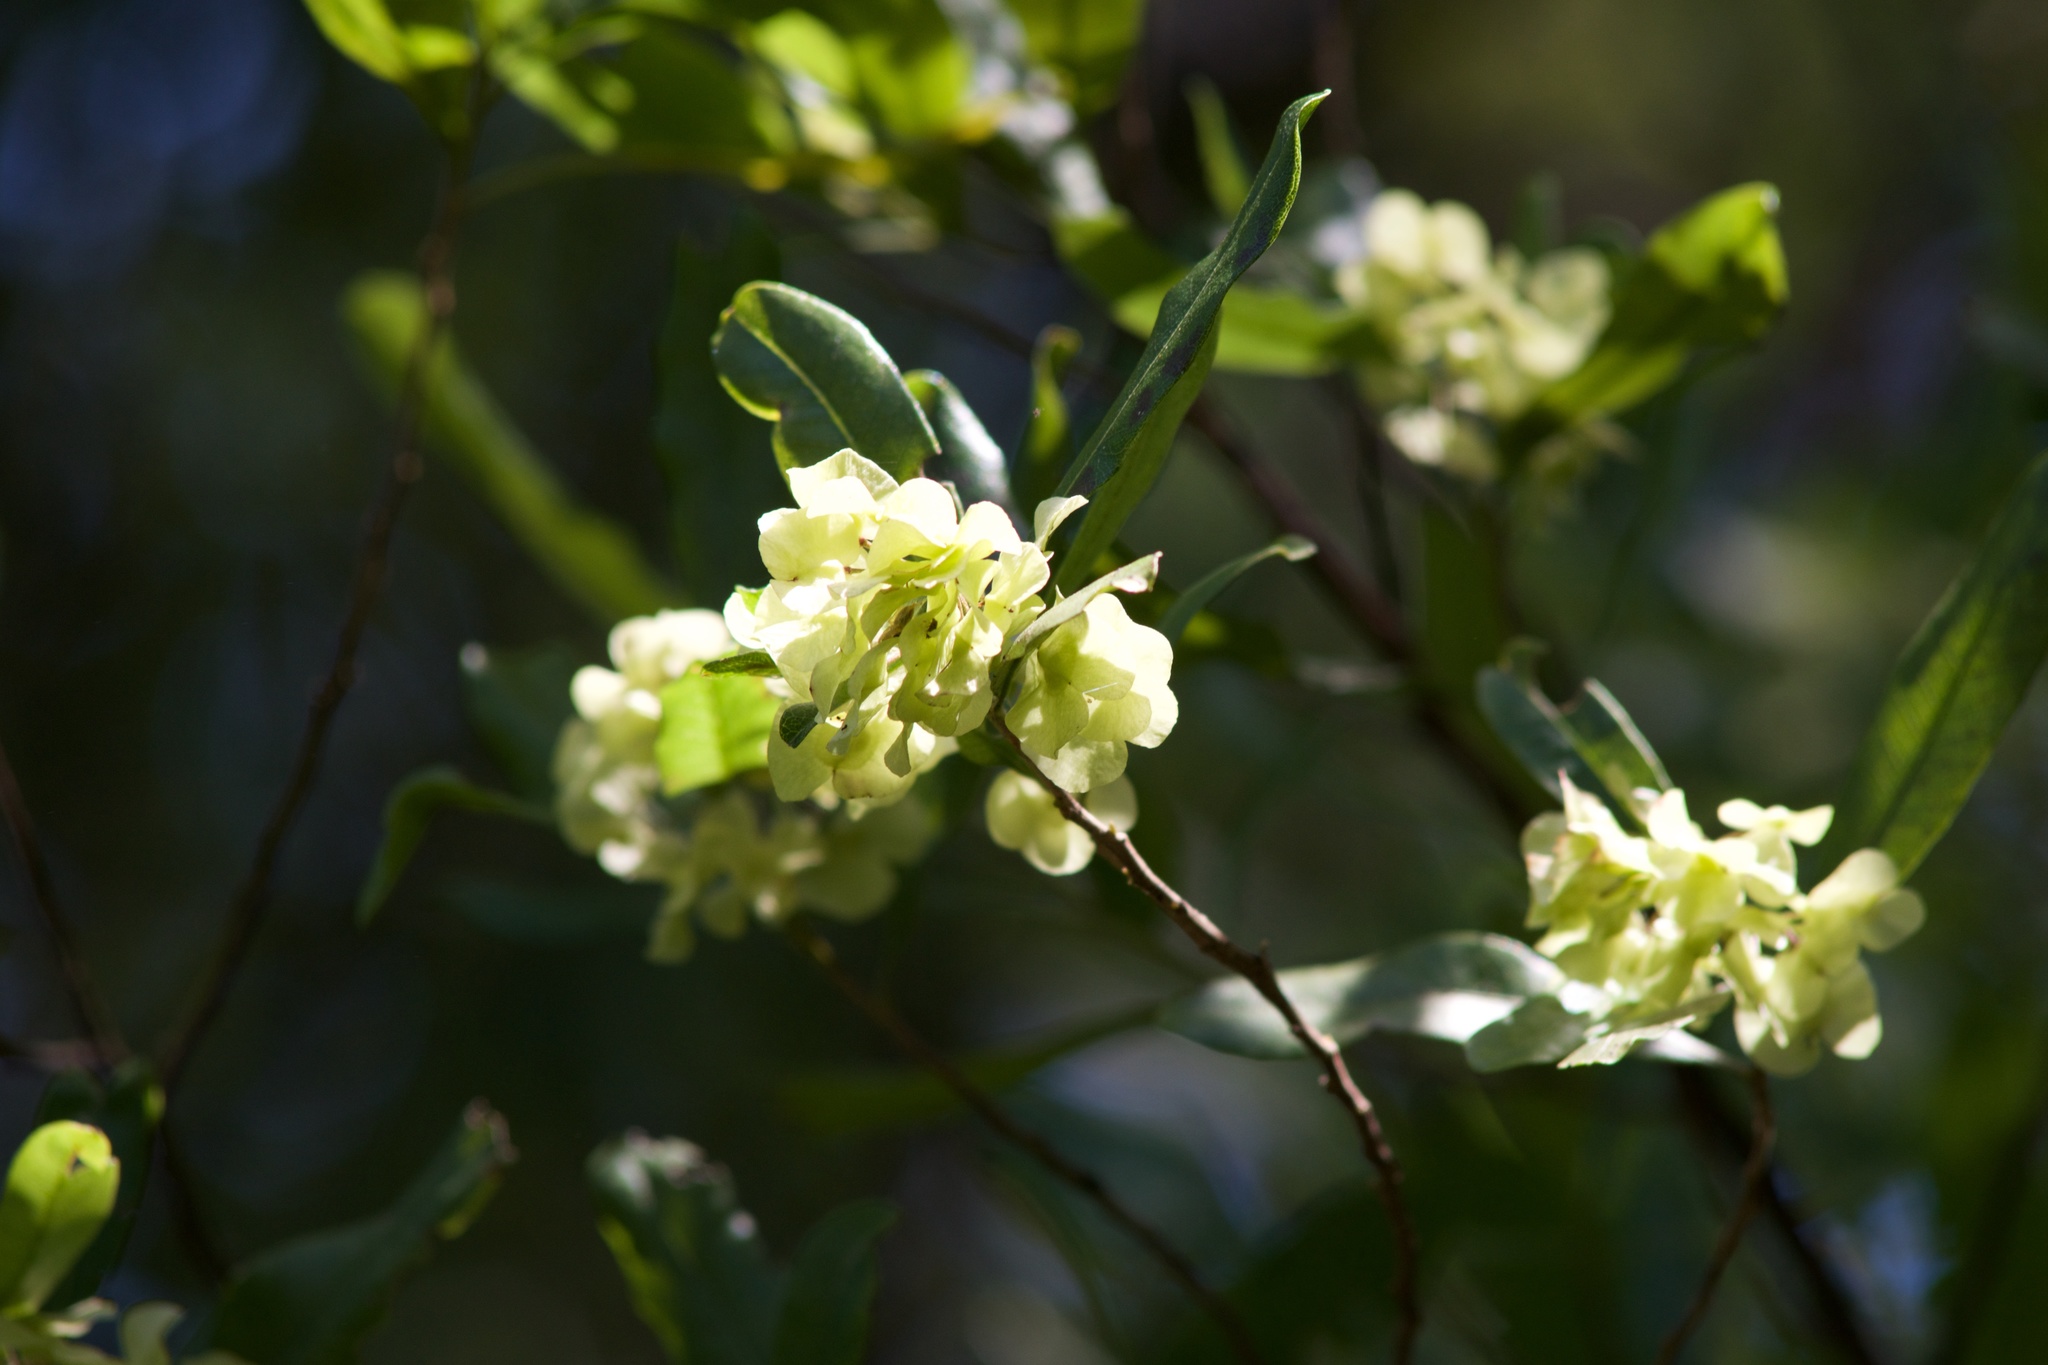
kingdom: Plantae
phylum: Tracheophyta
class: Magnoliopsida
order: Sapindales
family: Sapindaceae
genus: Dodonaea
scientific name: Dodonaea viscosa
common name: Hopbush
